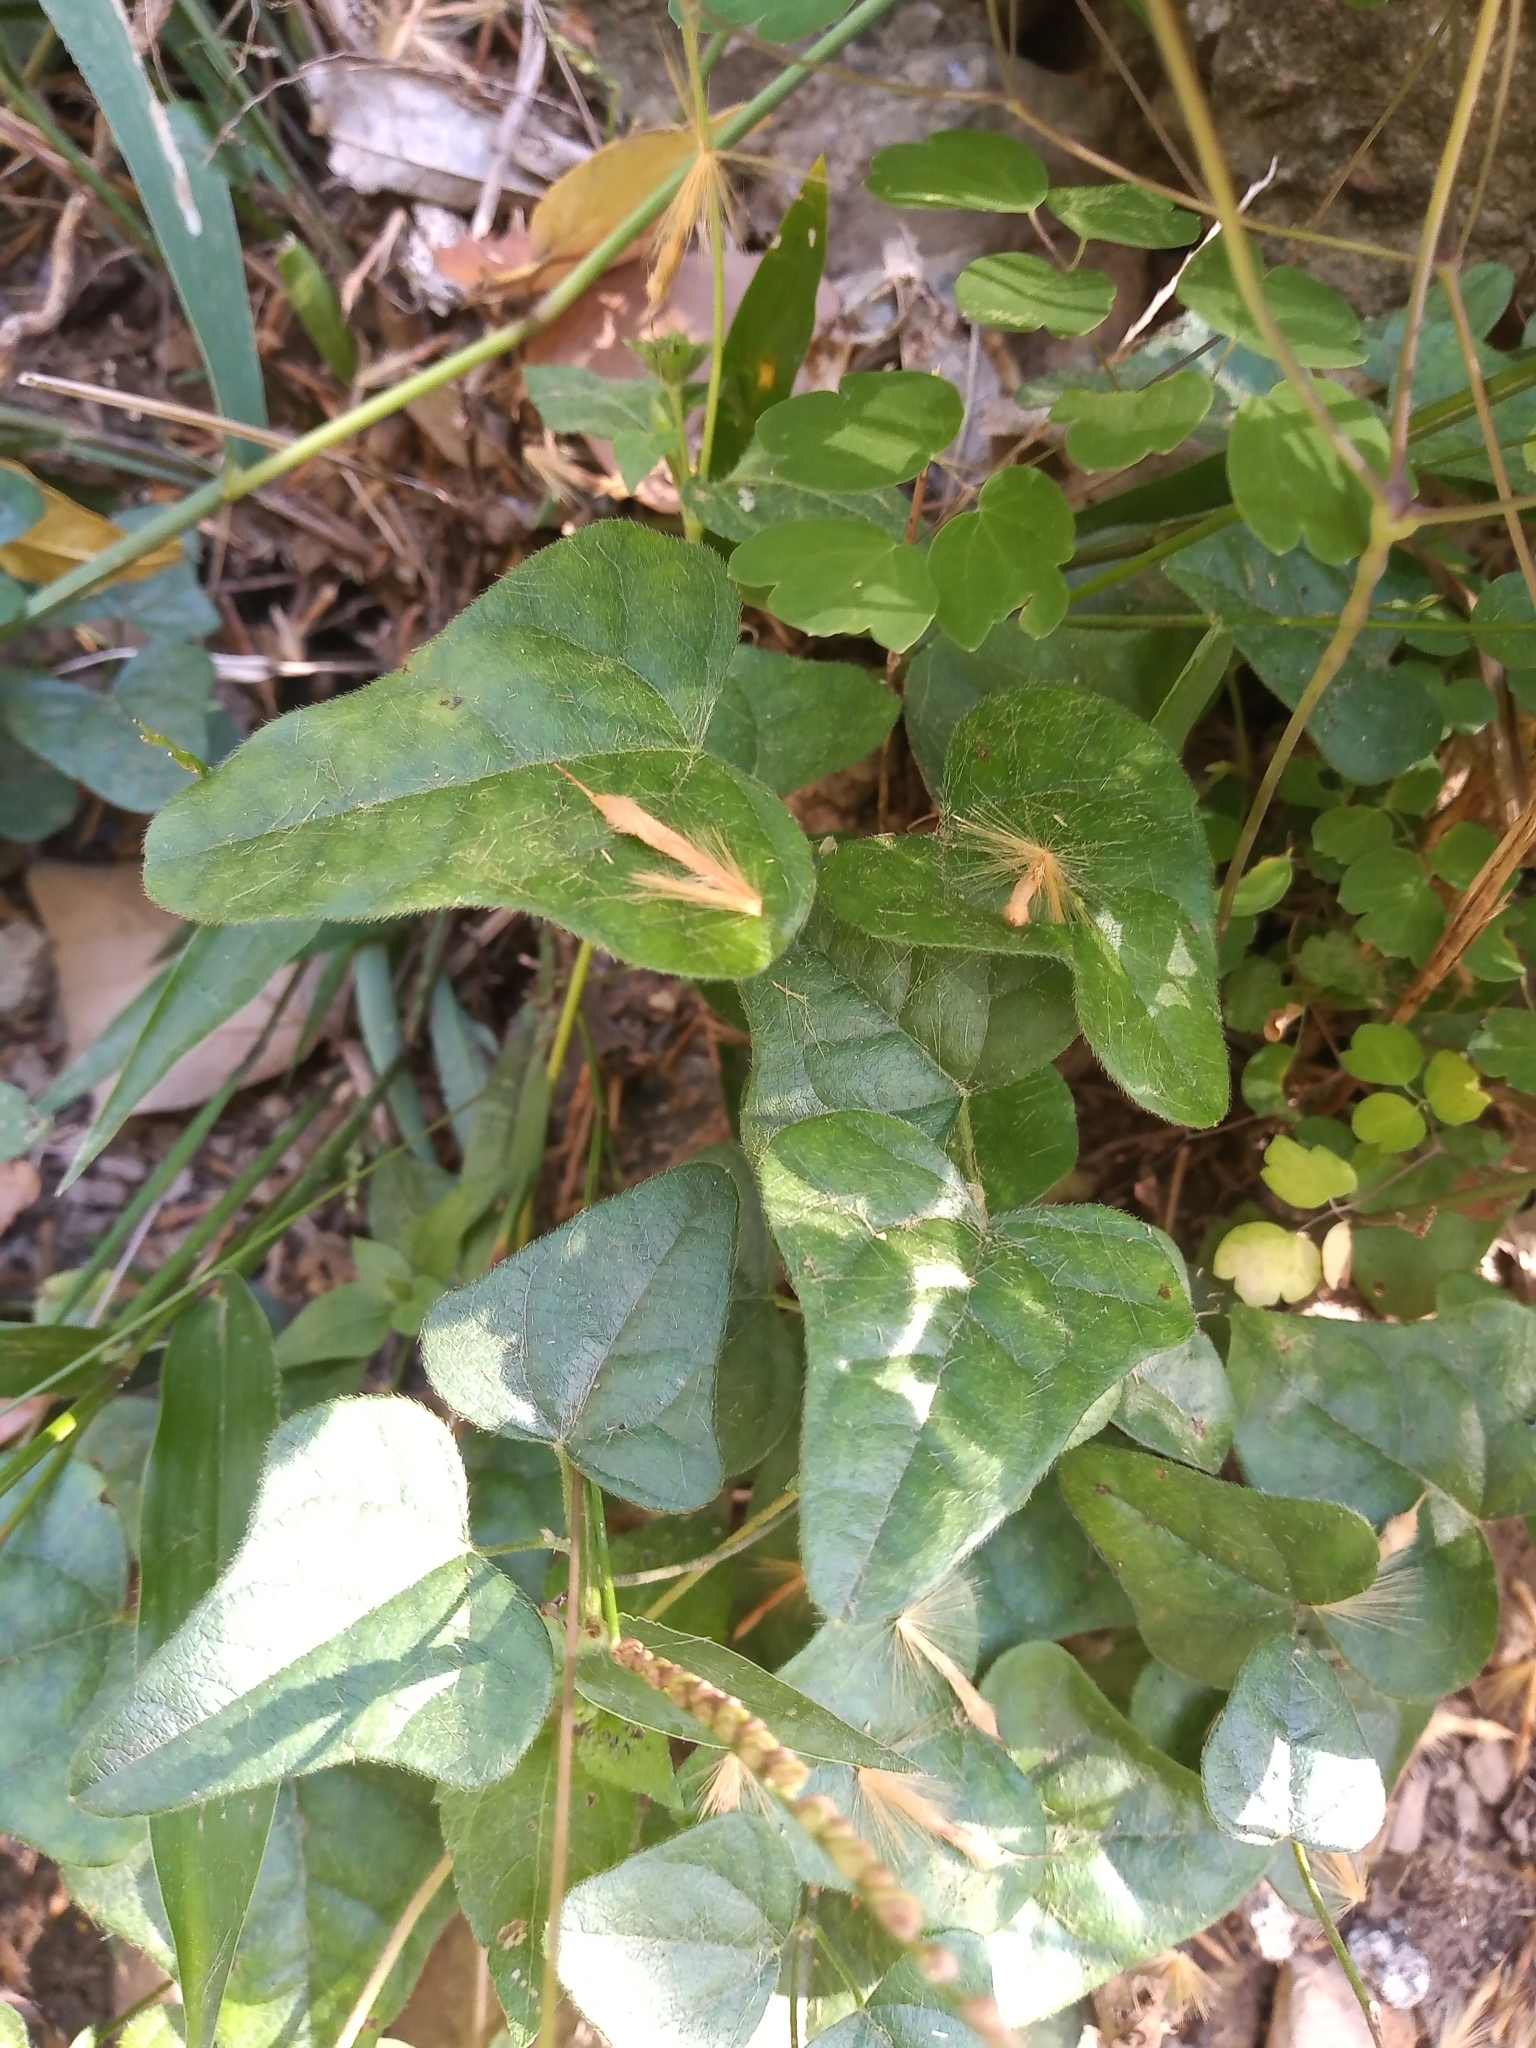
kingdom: Plantae
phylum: Tracheophyta
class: Magnoliopsida
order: Ranunculales
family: Menispermaceae
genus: Cocculus
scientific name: Cocculus diversifolius
